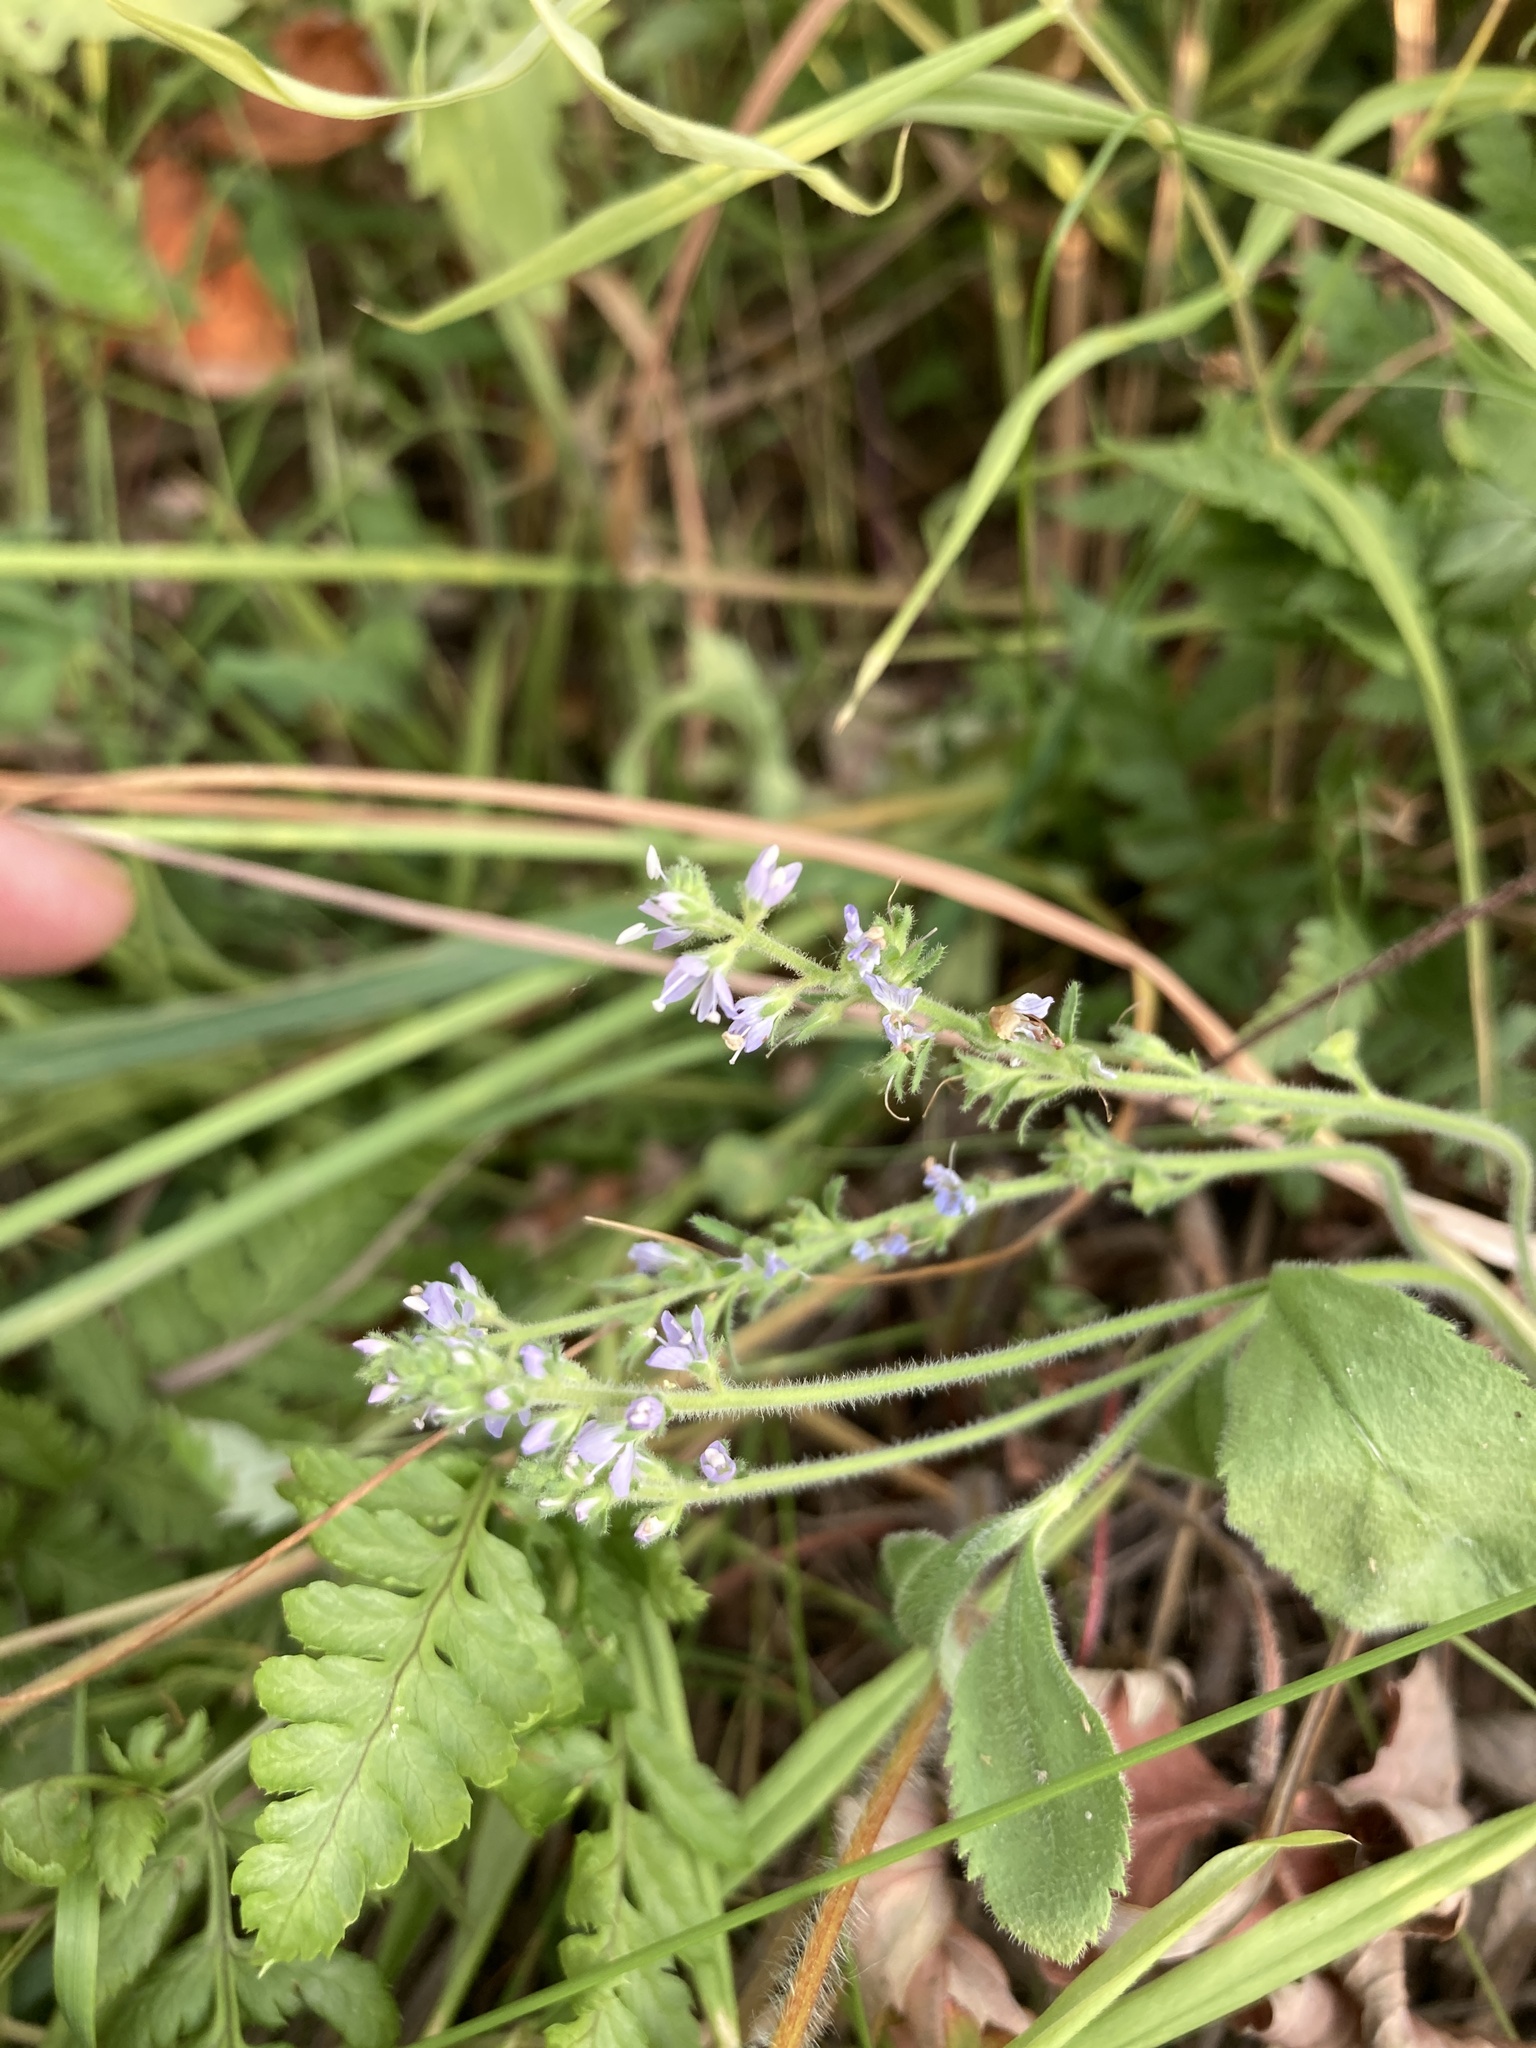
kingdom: Plantae
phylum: Tracheophyta
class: Magnoliopsida
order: Lamiales
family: Plantaginaceae
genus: Veronica
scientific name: Veronica officinalis
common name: Common speedwell
